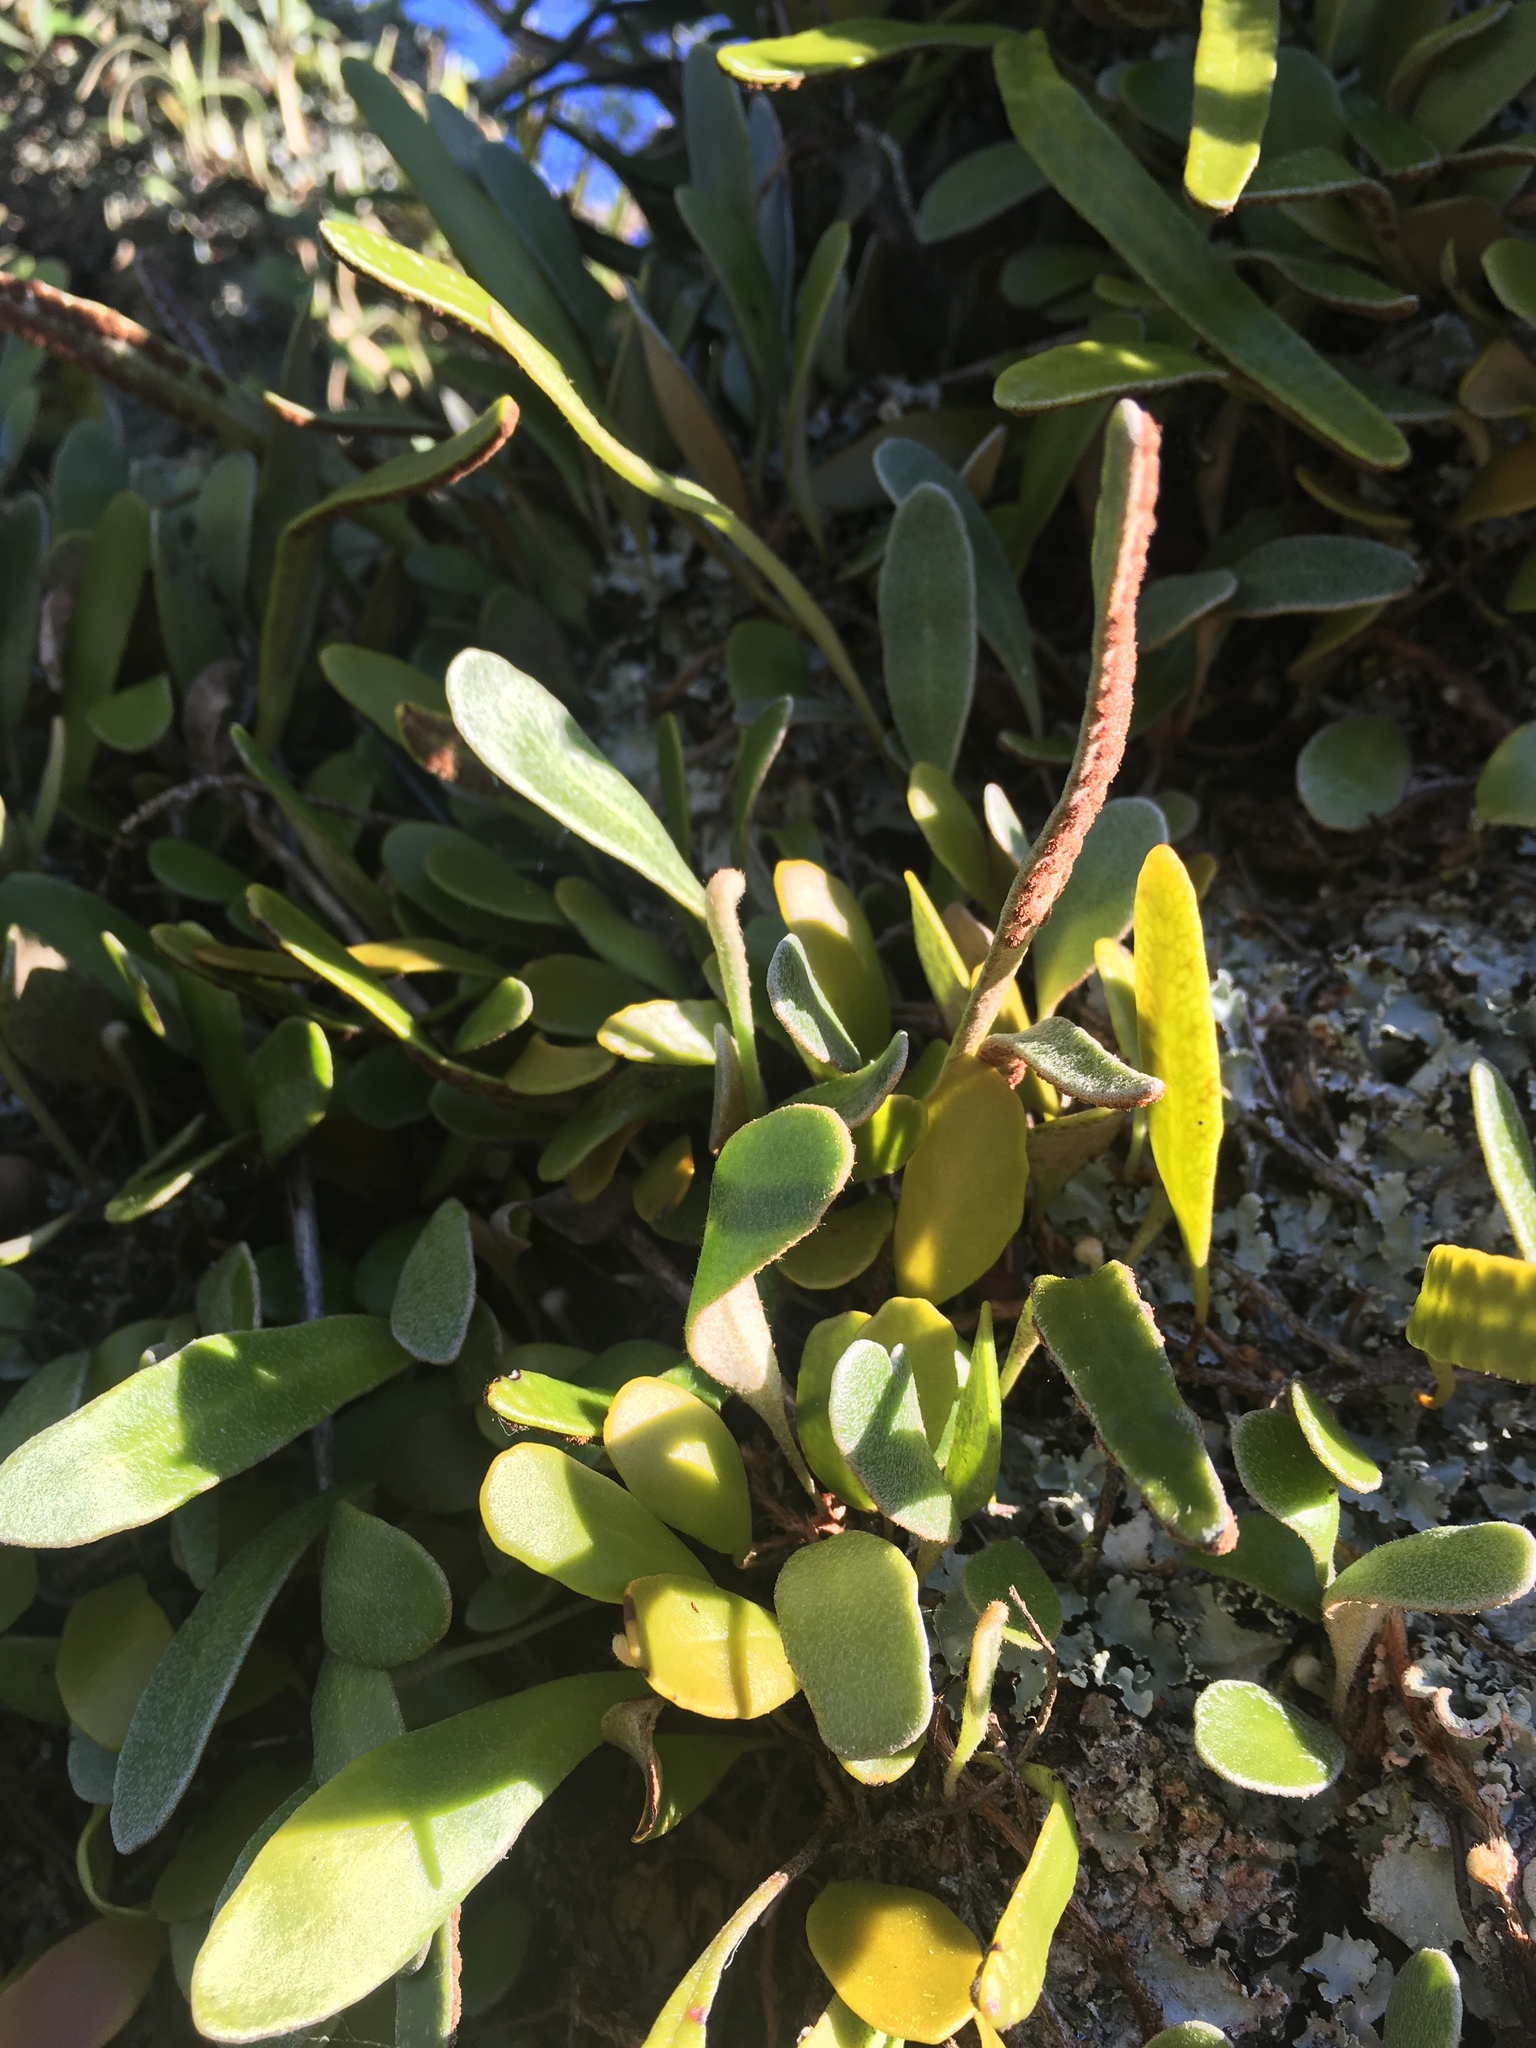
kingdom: Plantae
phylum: Tracheophyta
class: Polypodiopsida
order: Polypodiales
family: Polypodiaceae
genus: Pyrrosia
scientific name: Pyrrosia eleagnifolia
